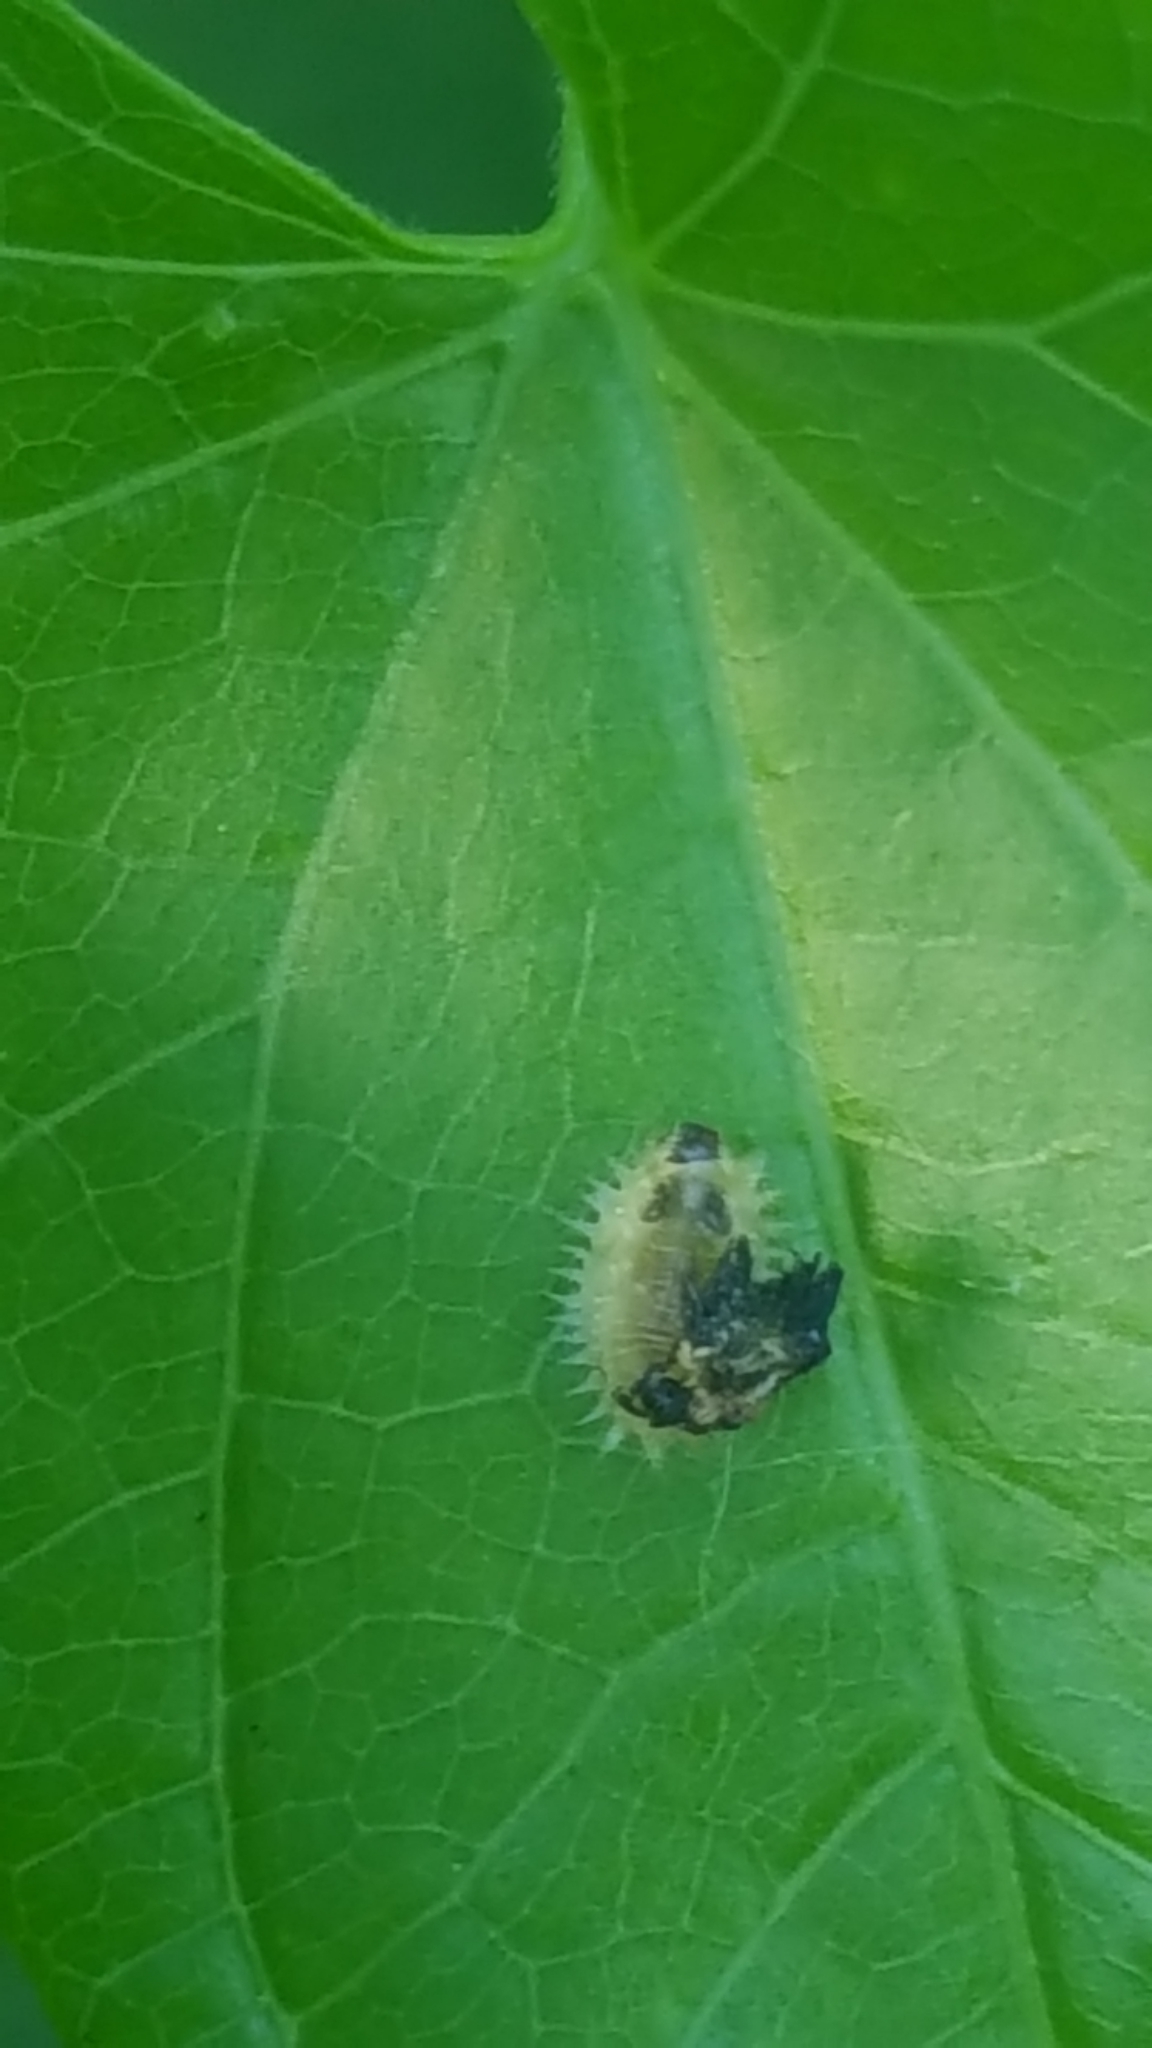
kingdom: Animalia
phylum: Arthropoda
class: Insecta
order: Coleoptera
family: Chrysomelidae
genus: Charidotella
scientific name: Charidotella sexpunctata
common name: Golden tortoise beetle
